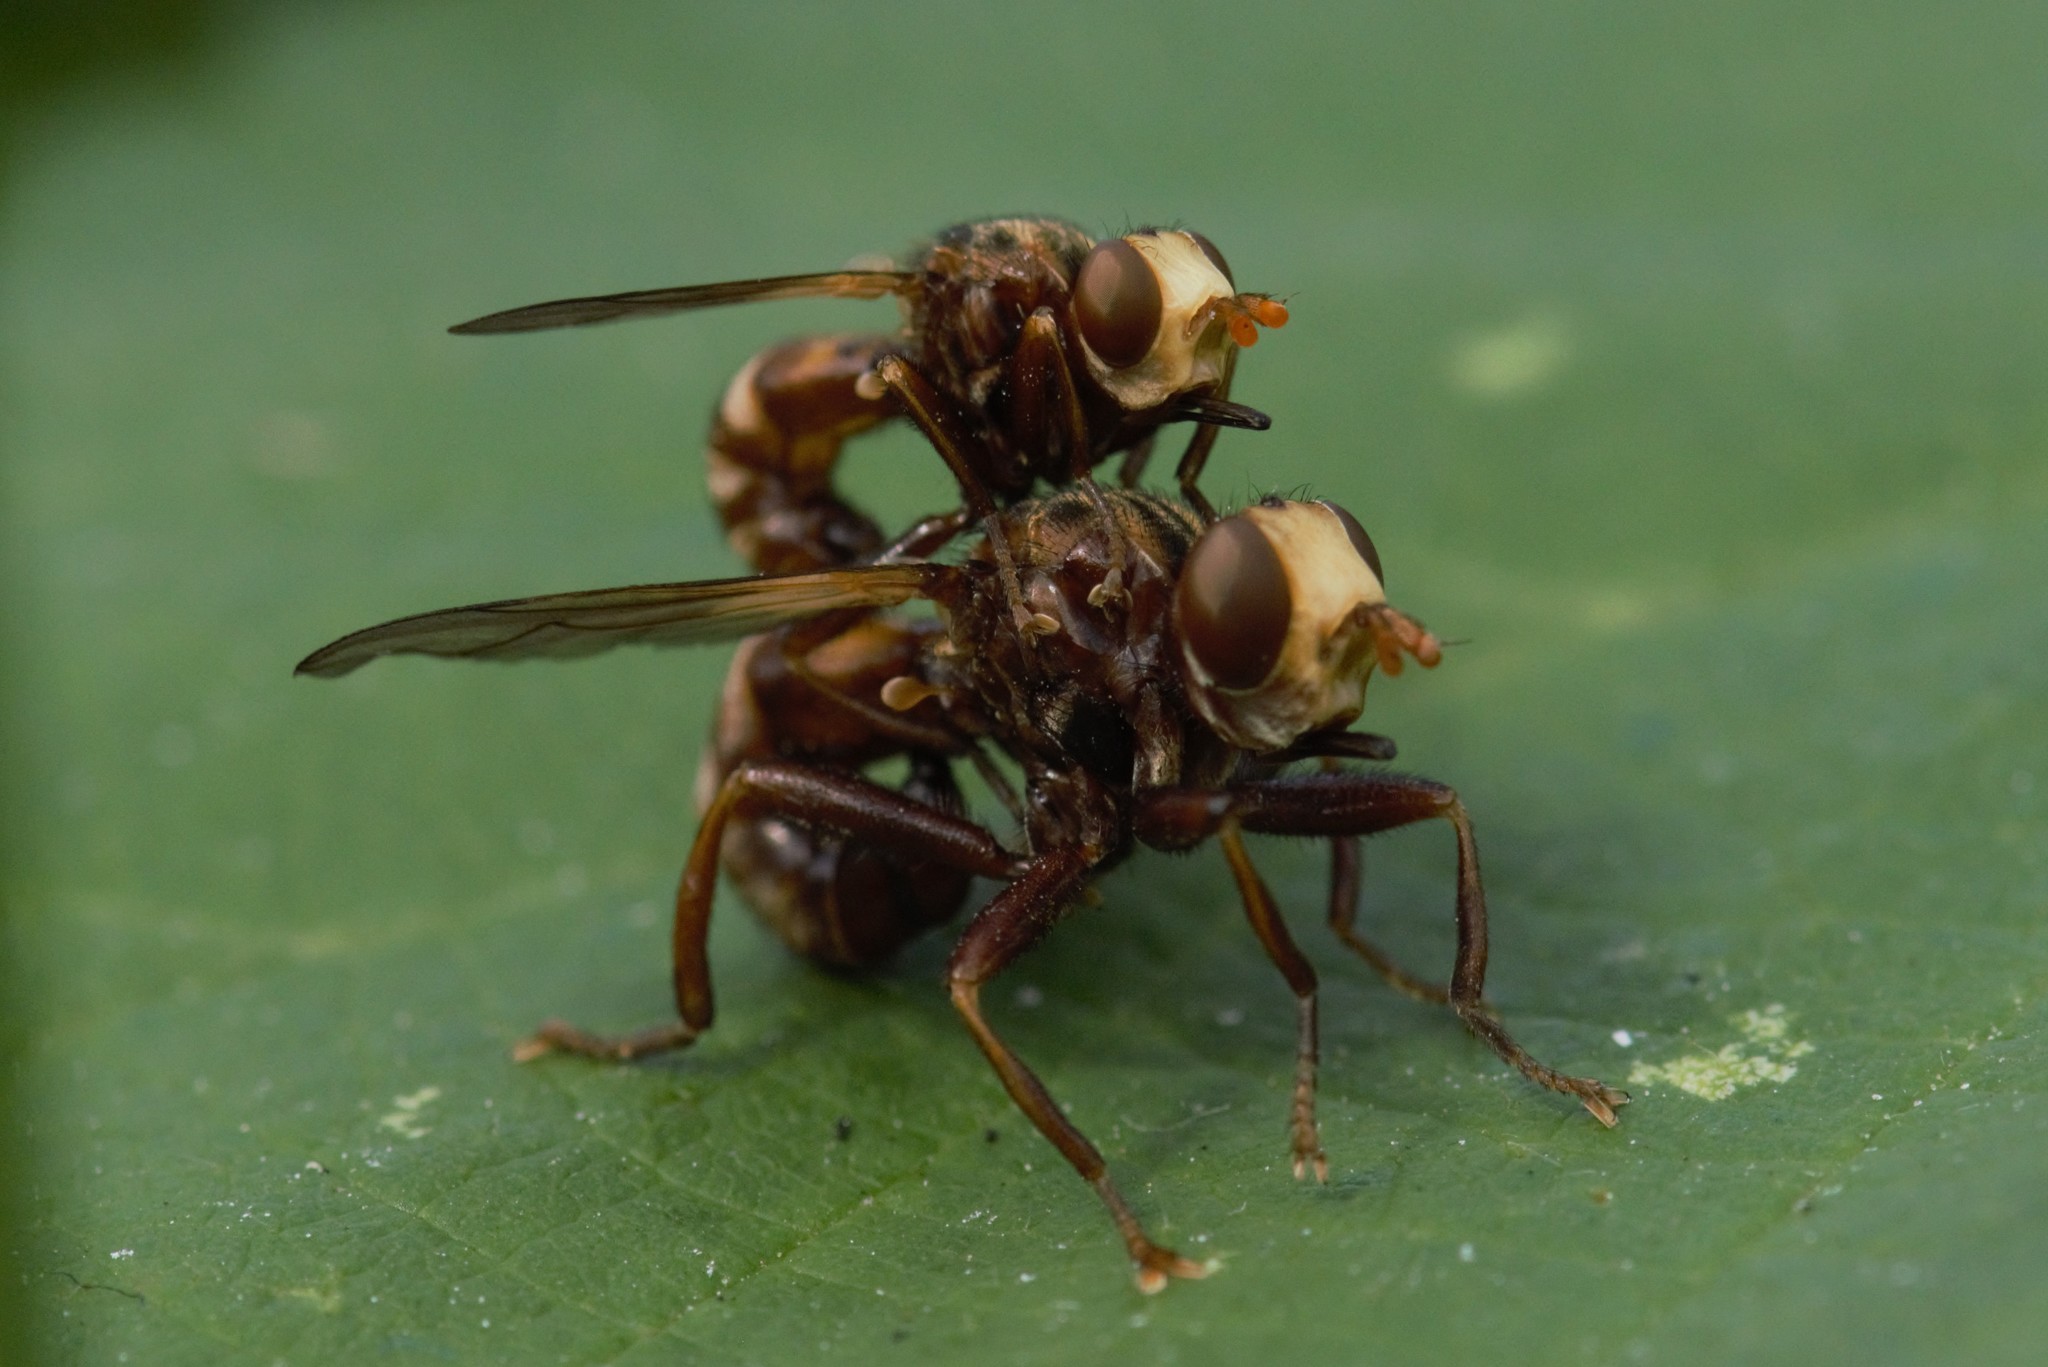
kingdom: Animalia
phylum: Arthropoda
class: Insecta
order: Diptera
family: Conopidae
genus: Sicus
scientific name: Sicus ferrugineus
